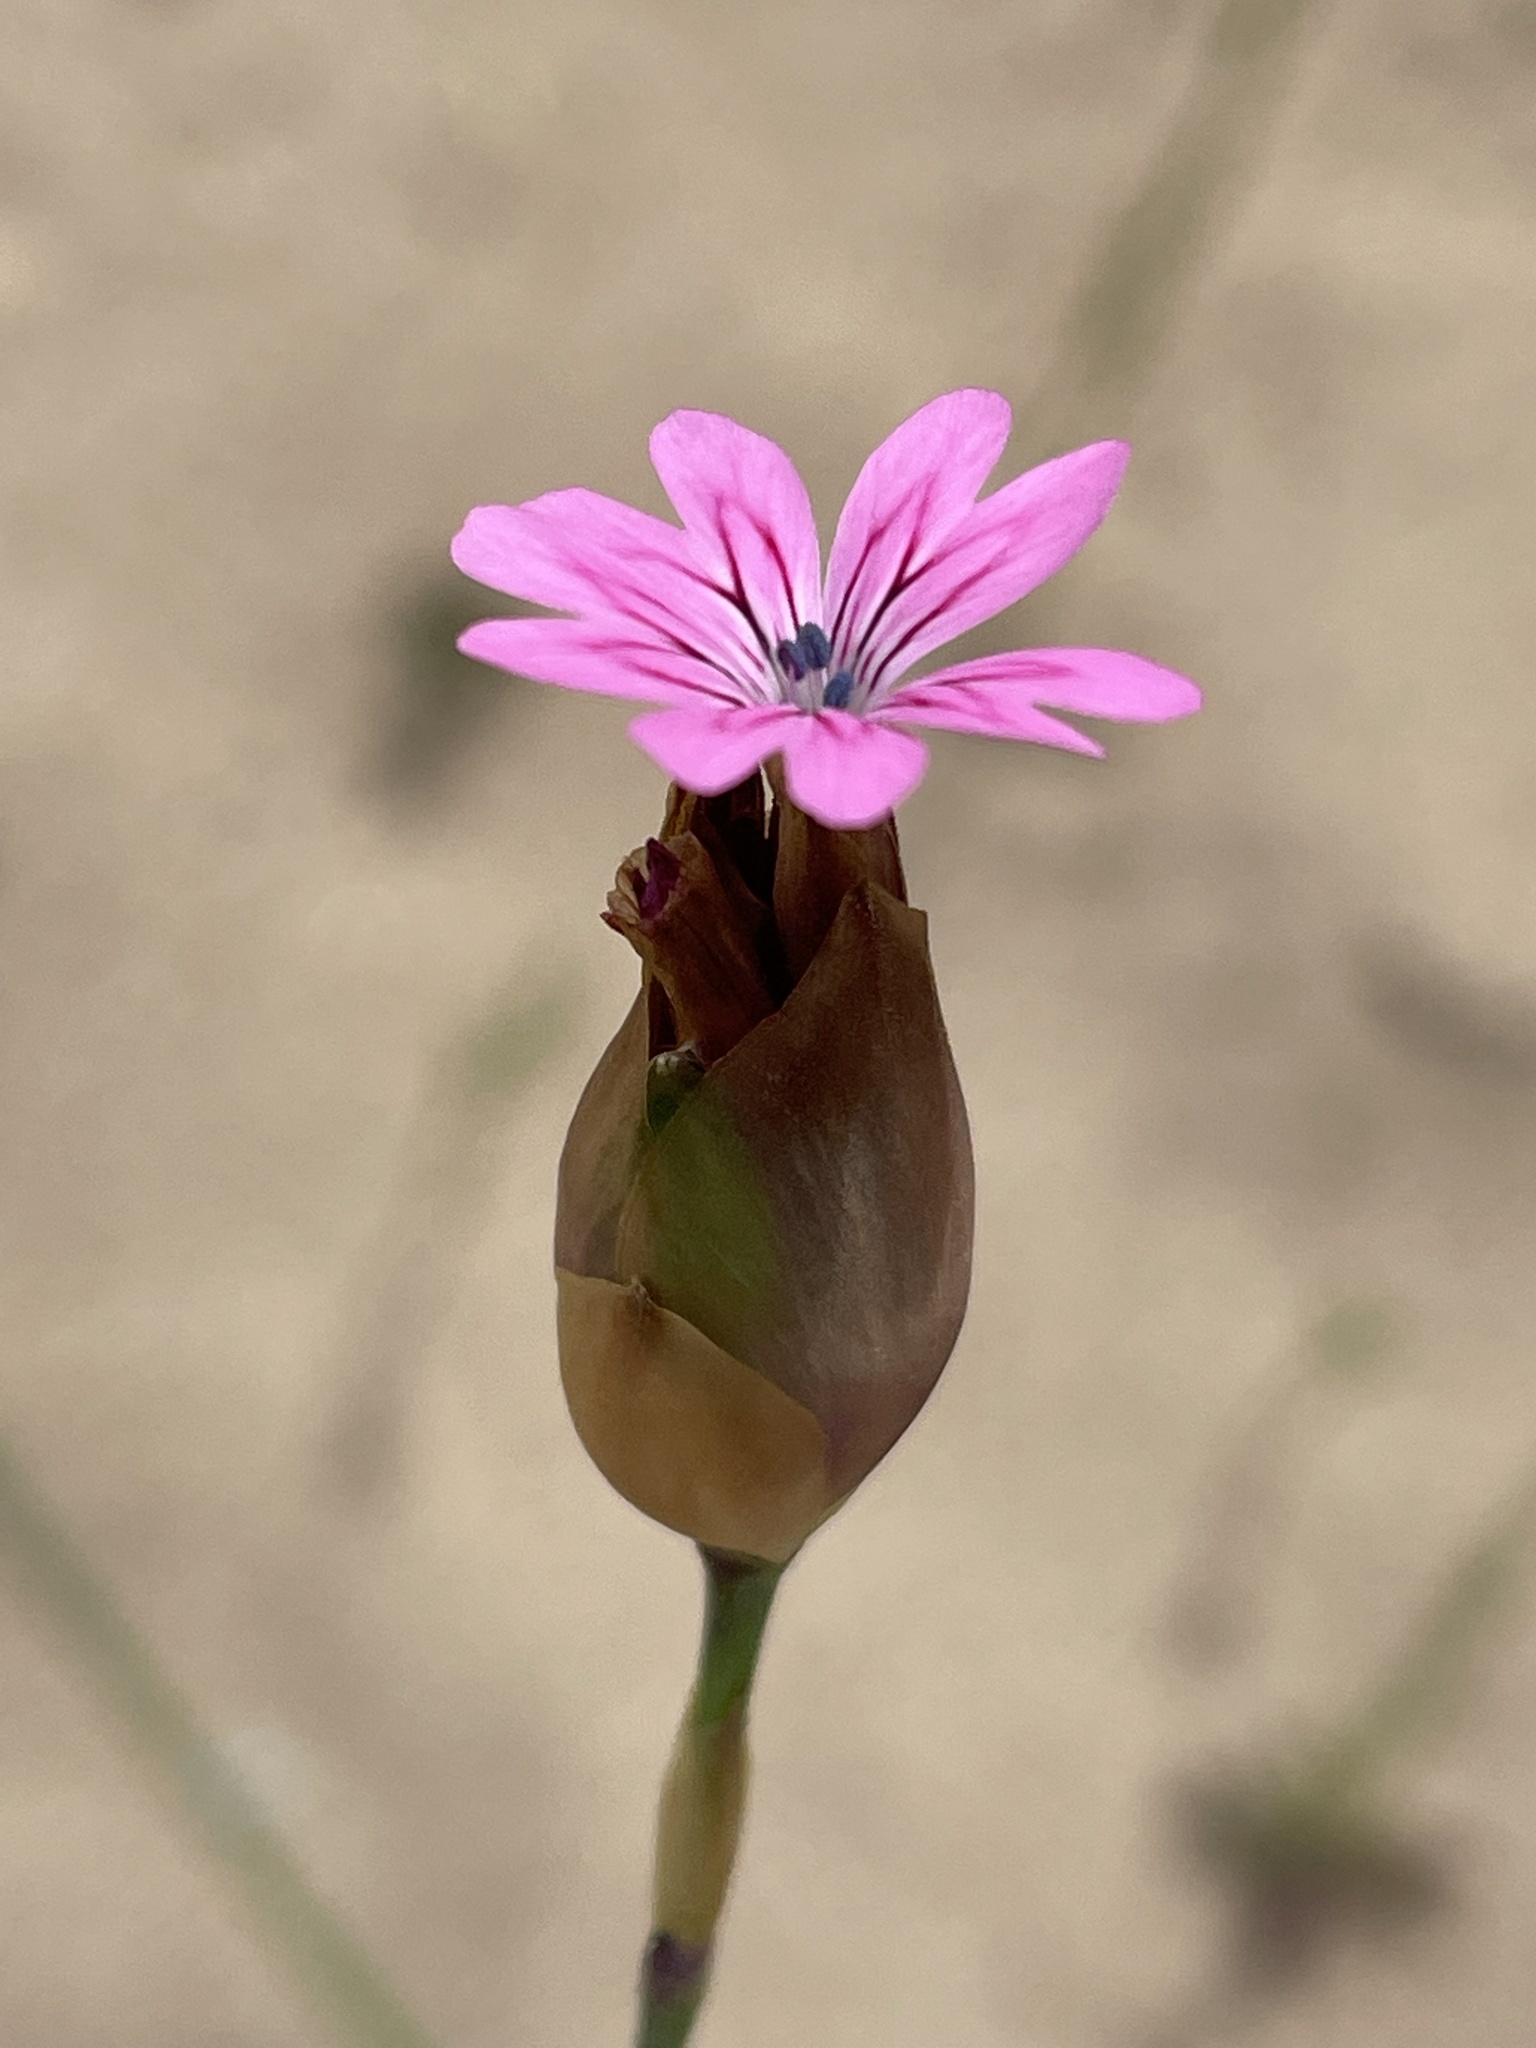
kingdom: Plantae
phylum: Tracheophyta
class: Magnoliopsida
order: Caryophyllales
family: Caryophyllaceae
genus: Petrorhagia
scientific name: Petrorhagia dubia
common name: Hairypink
